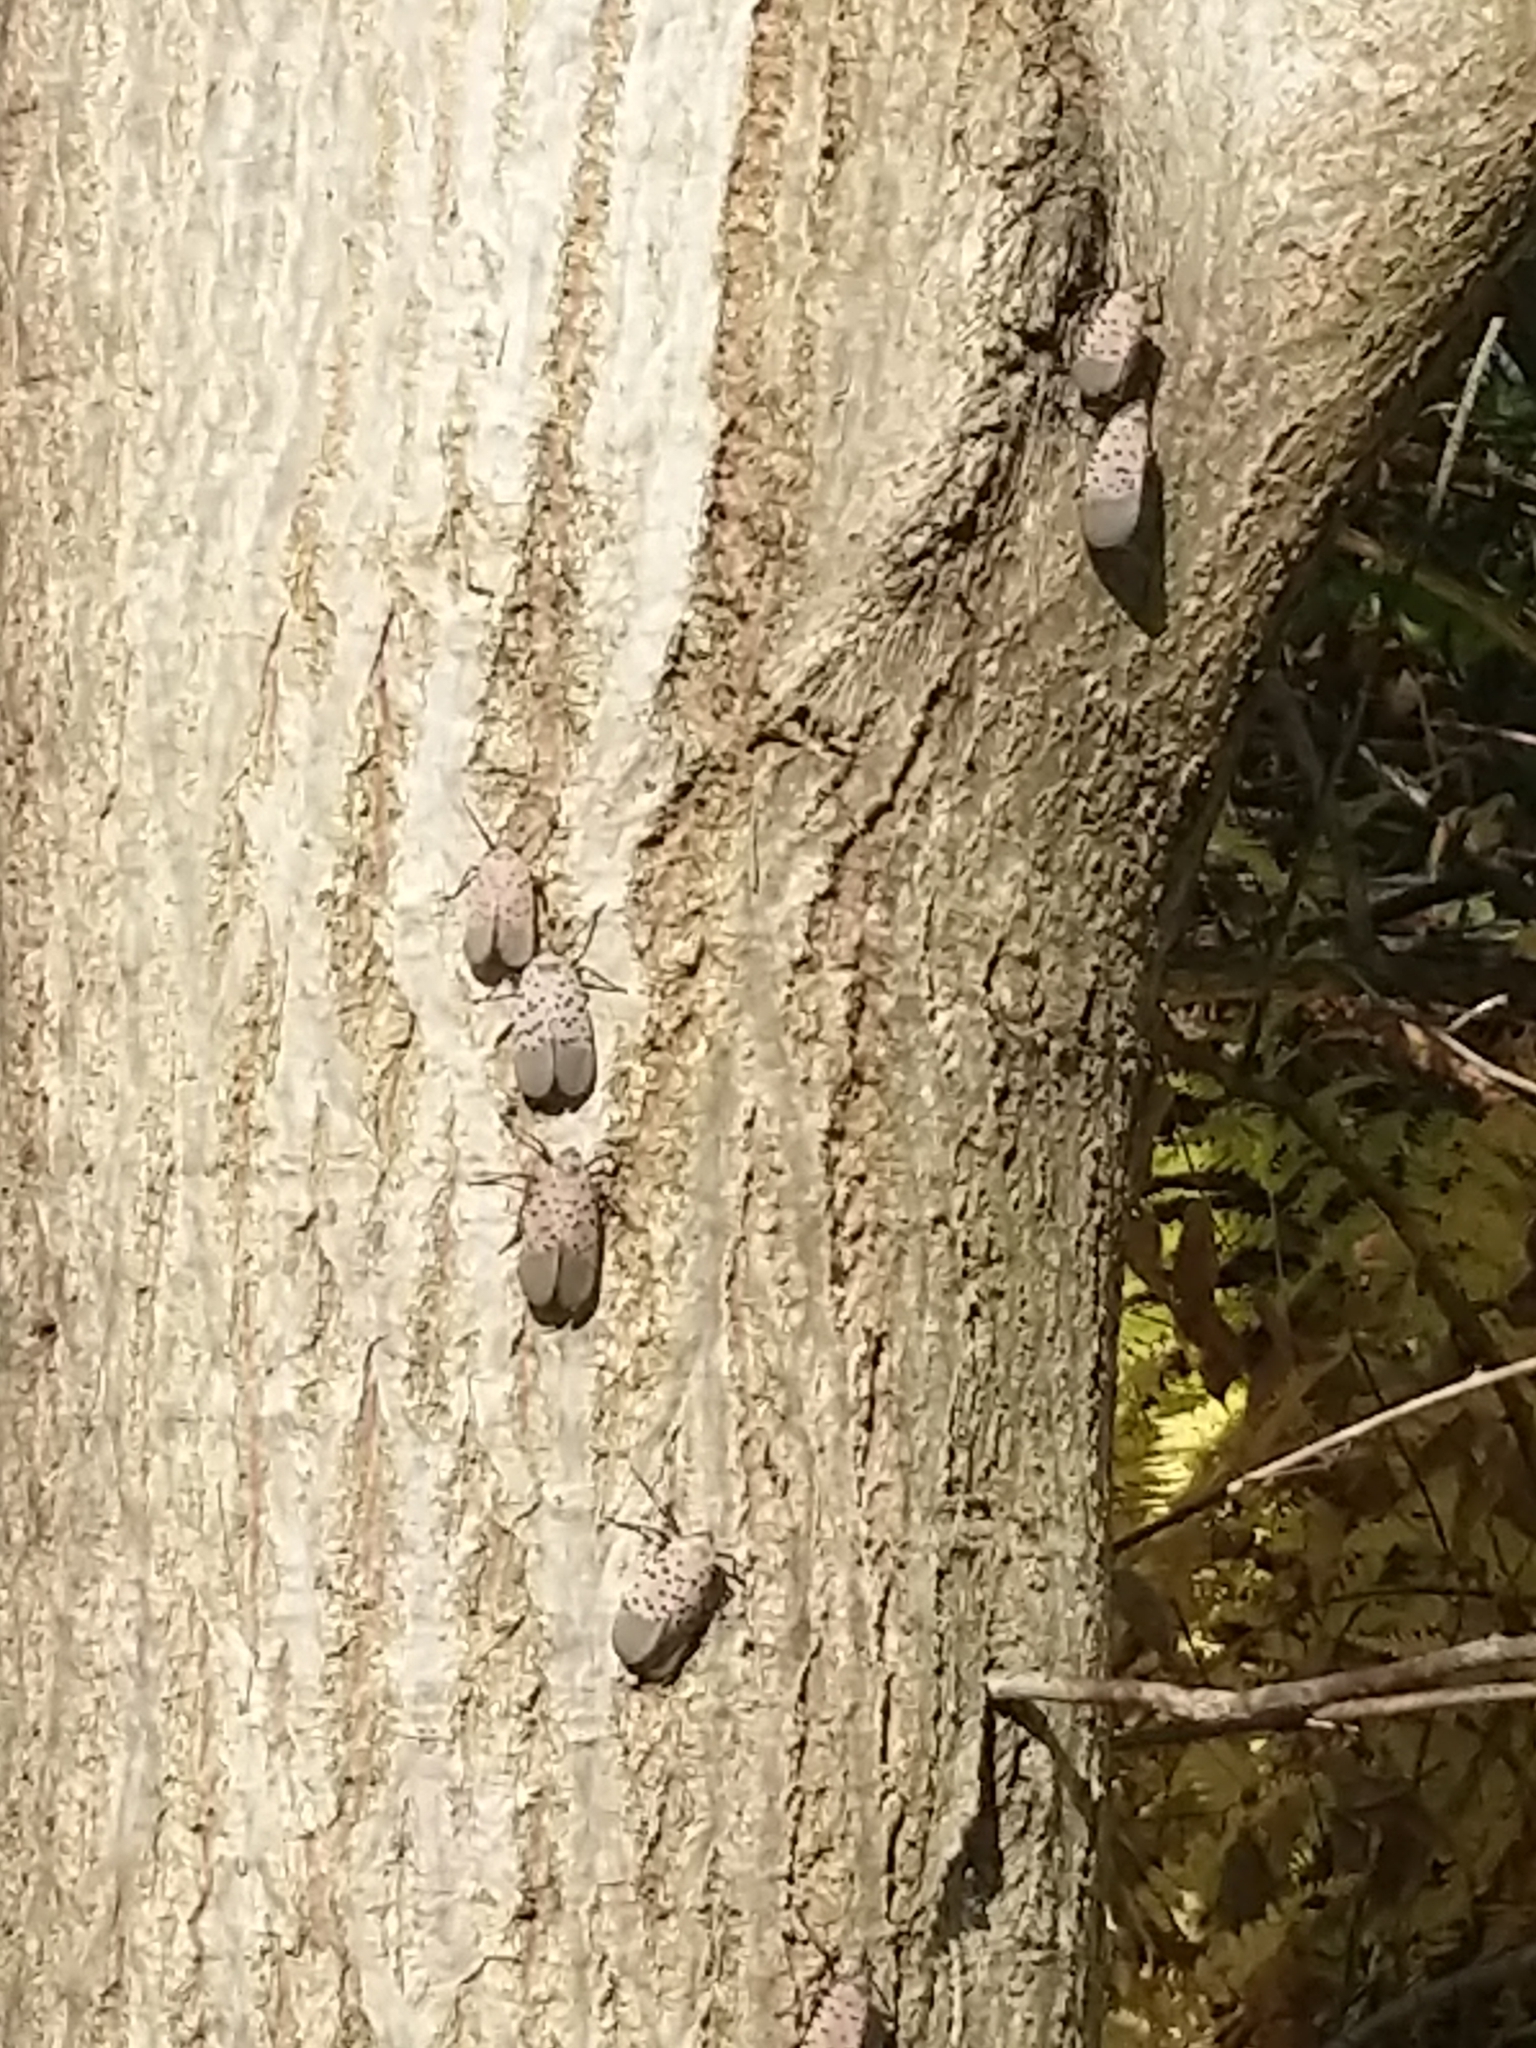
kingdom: Animalia
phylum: Arthropoda
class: Insecta
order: Hemiptera
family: Fulgoridae
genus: Lycorma
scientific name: Lycorma delicatula
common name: Spotted lanternfly
